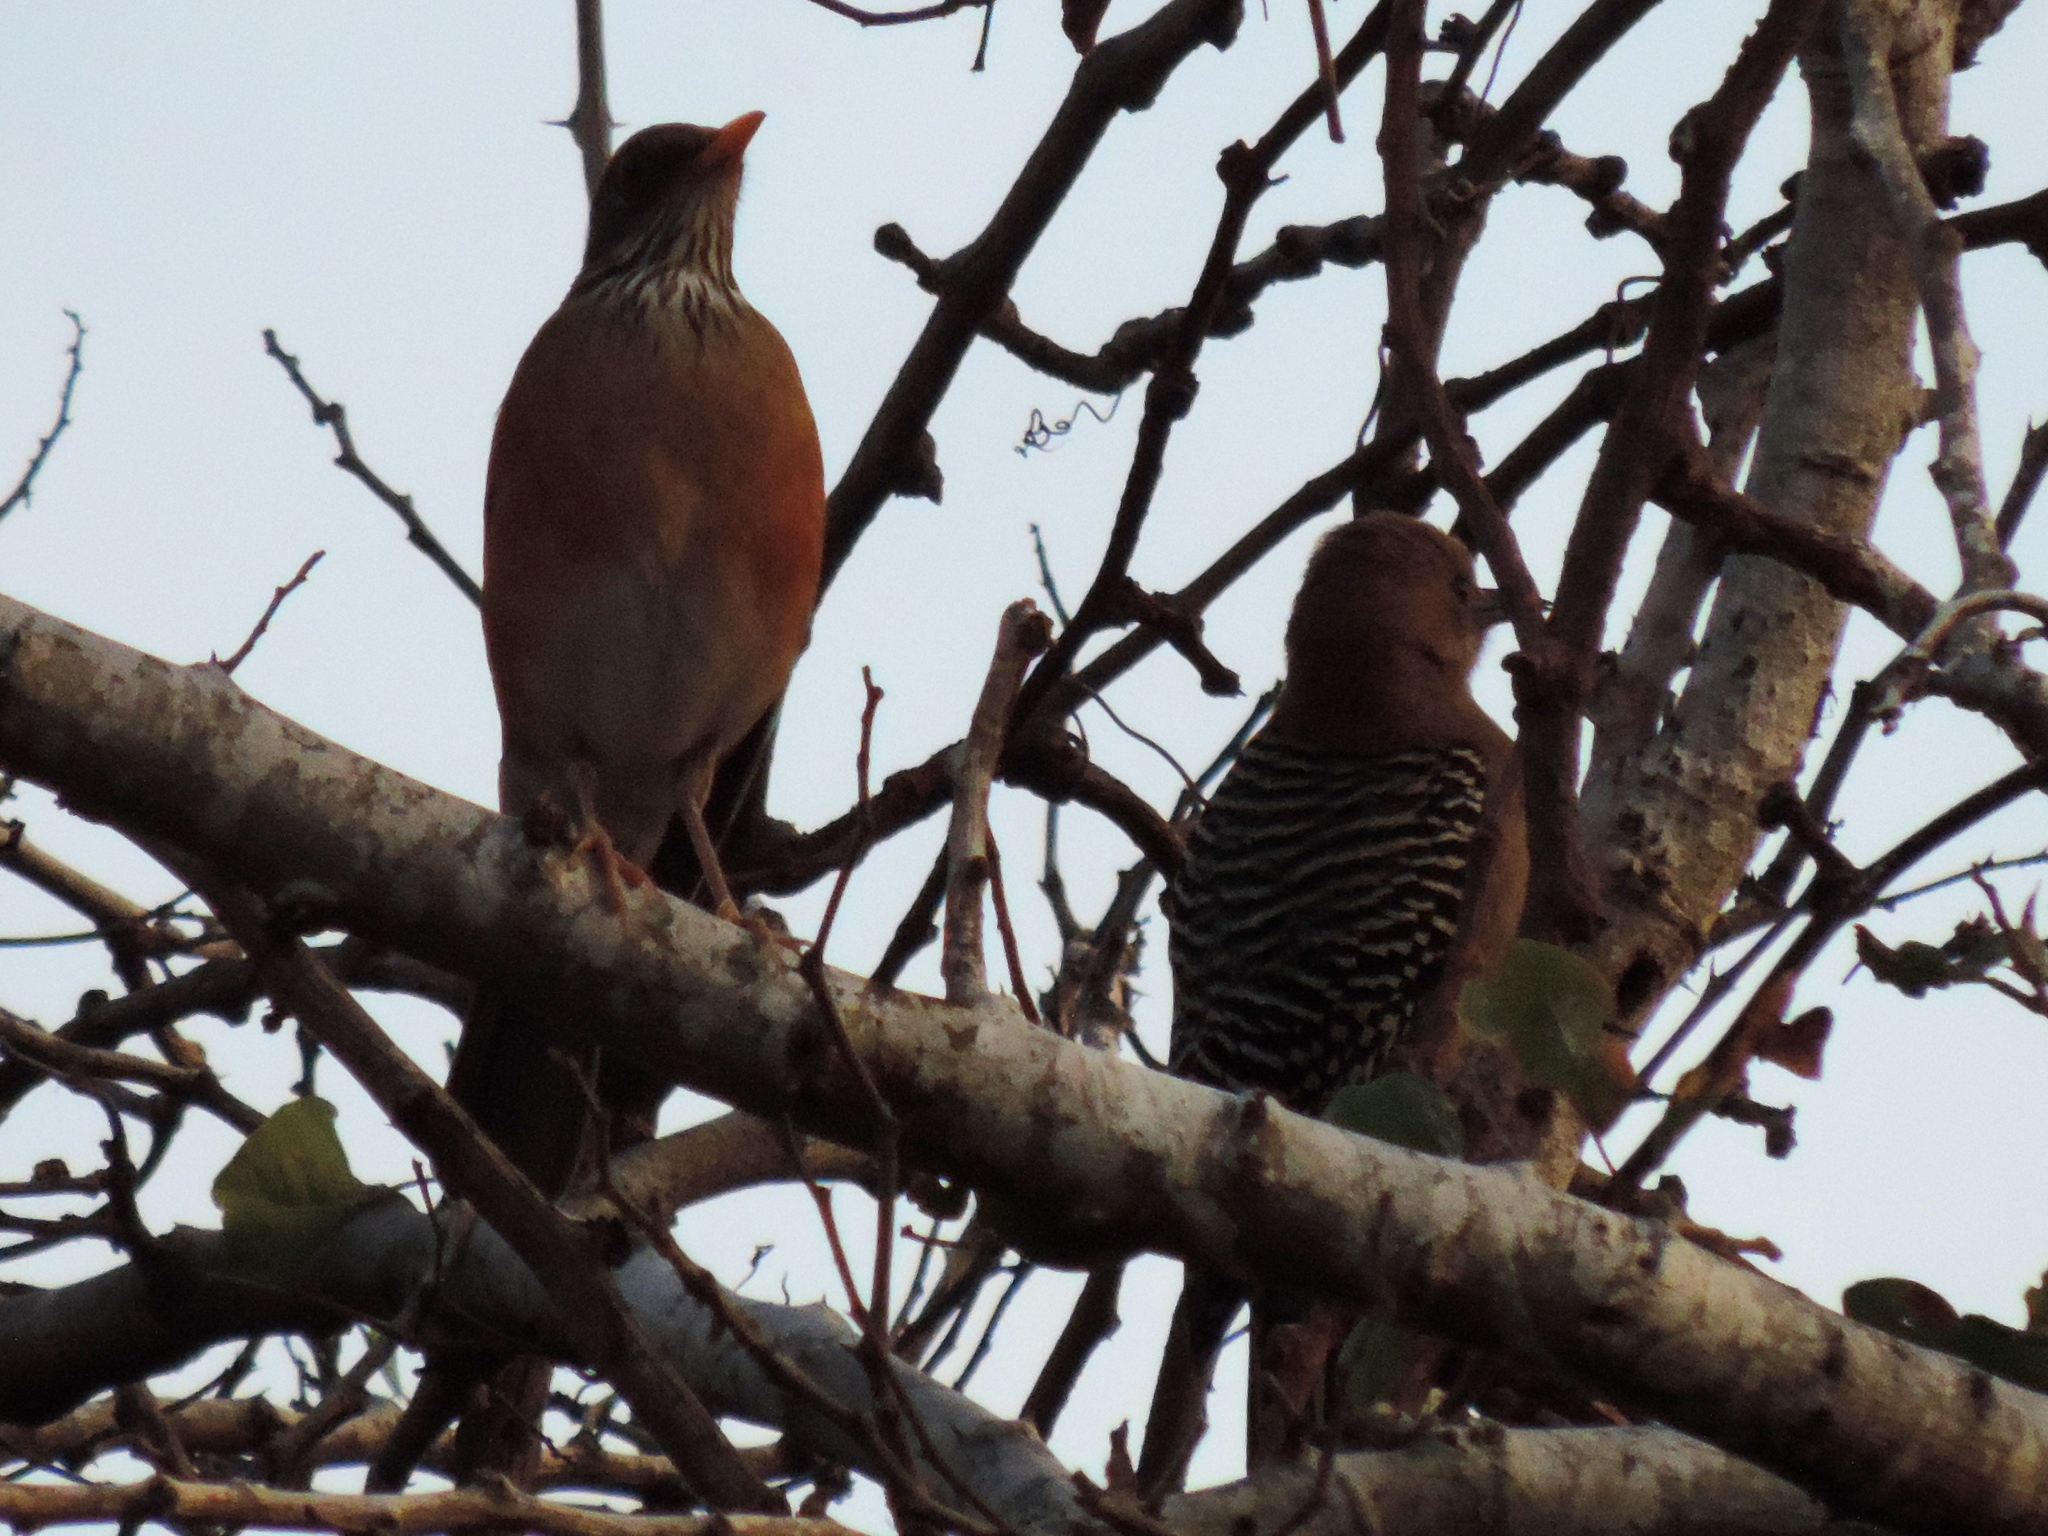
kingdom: Animalia
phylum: Chordata
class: Aves
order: Passeriformes
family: Turdidae
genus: Turdus
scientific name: Turdus rufopalliatus
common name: Rufous-backed robin
